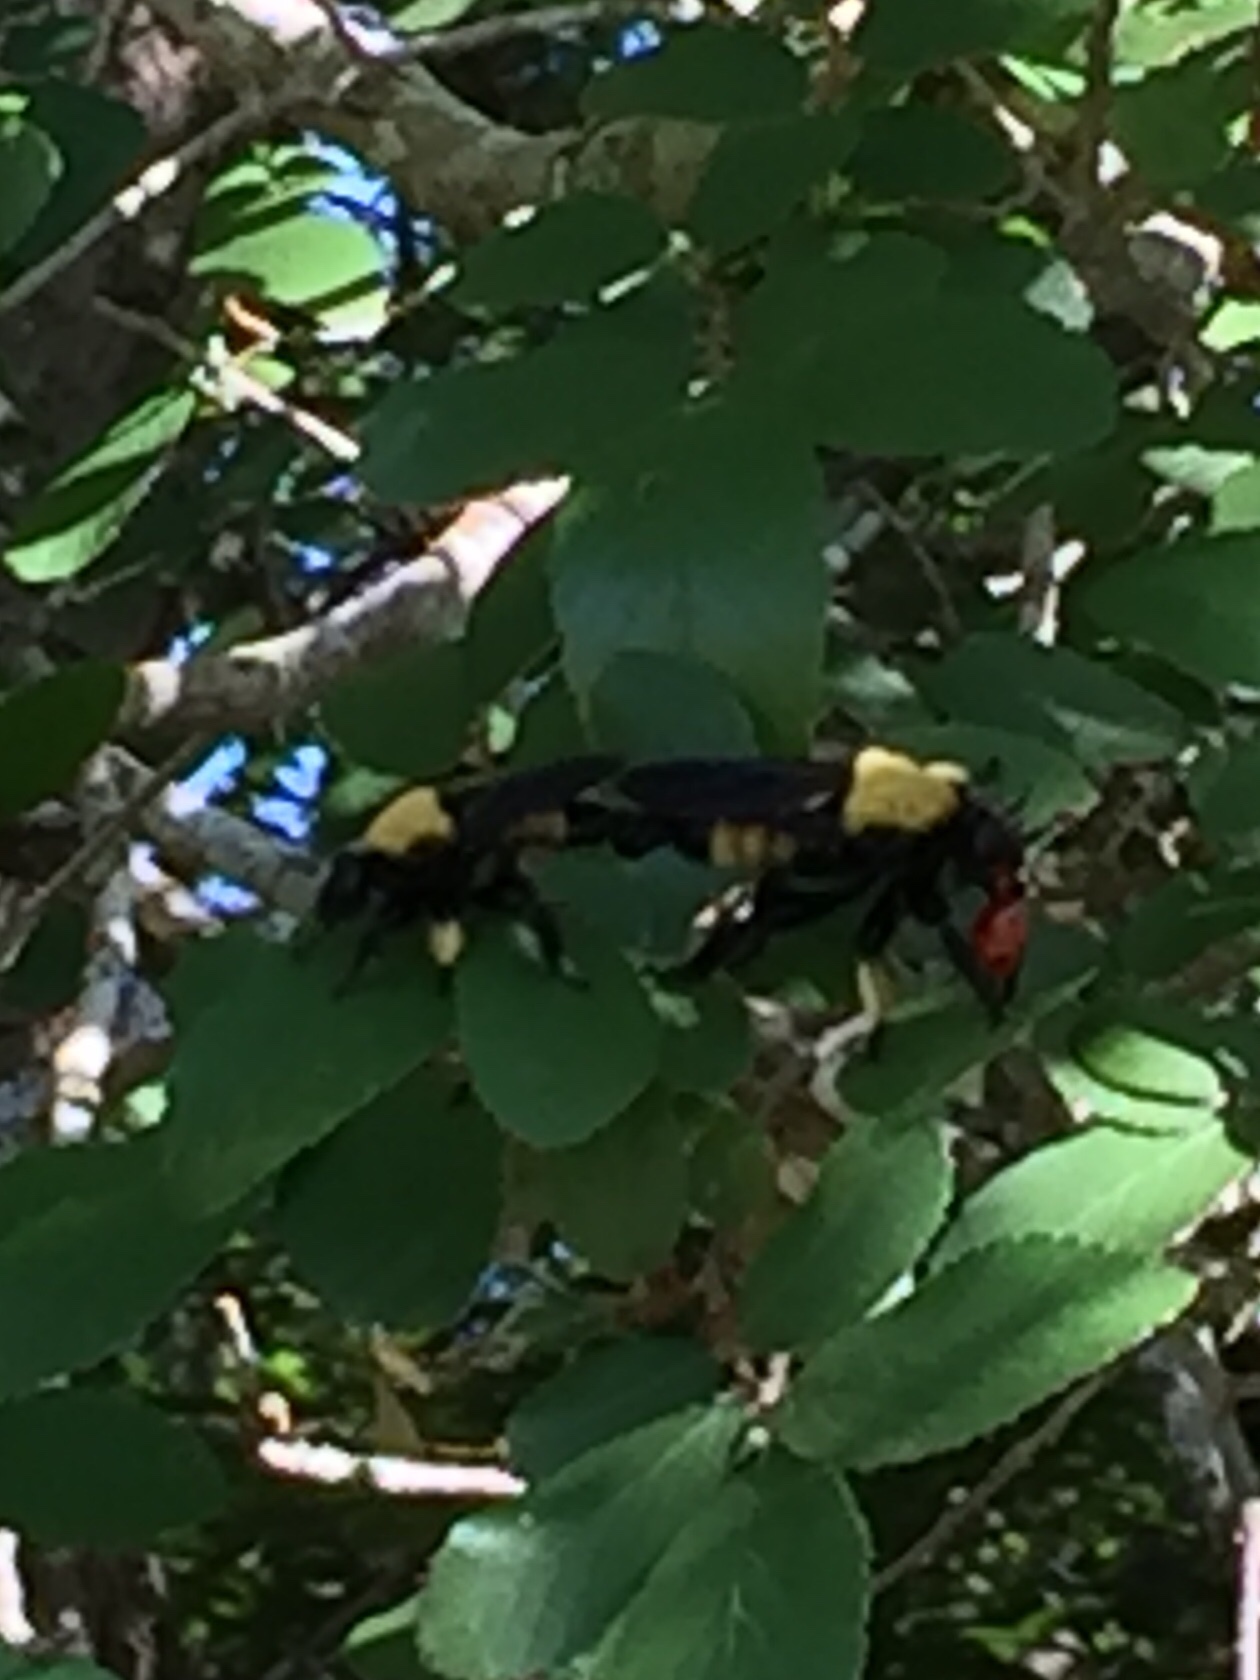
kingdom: Animalia
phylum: Arthropoda
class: Insecta
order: Diptera
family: Asilidae
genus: Laphria
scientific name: Laphria macquarti
